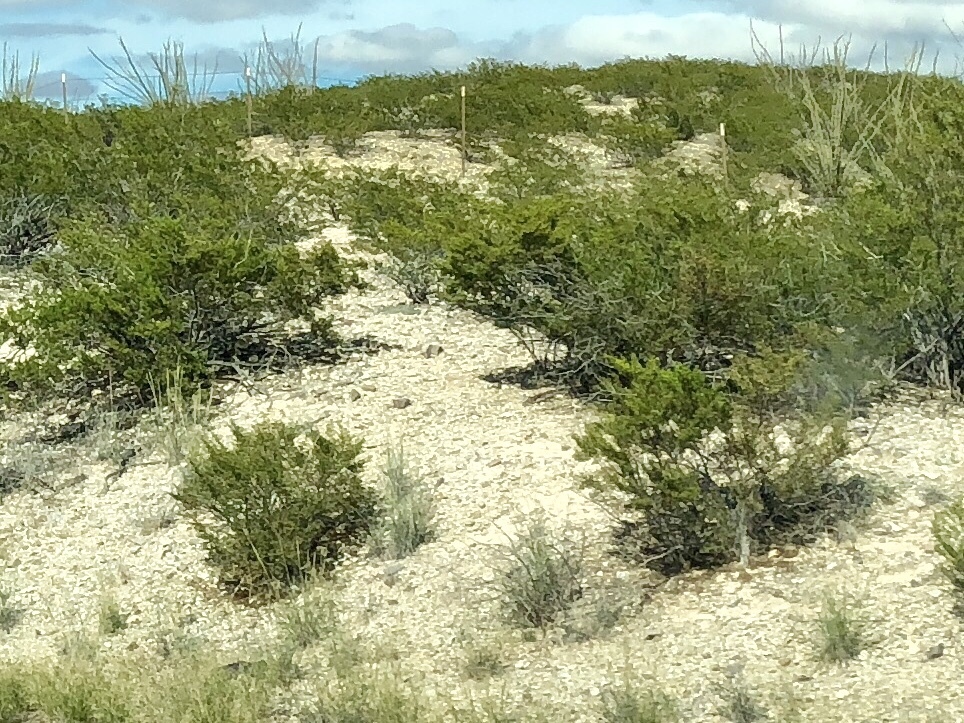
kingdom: Plantae
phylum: Tracheophyta
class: Magnoliopsida
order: Zygophyllales
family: Zygophyllaceae
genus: Larrea
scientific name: Larrea tridentata
